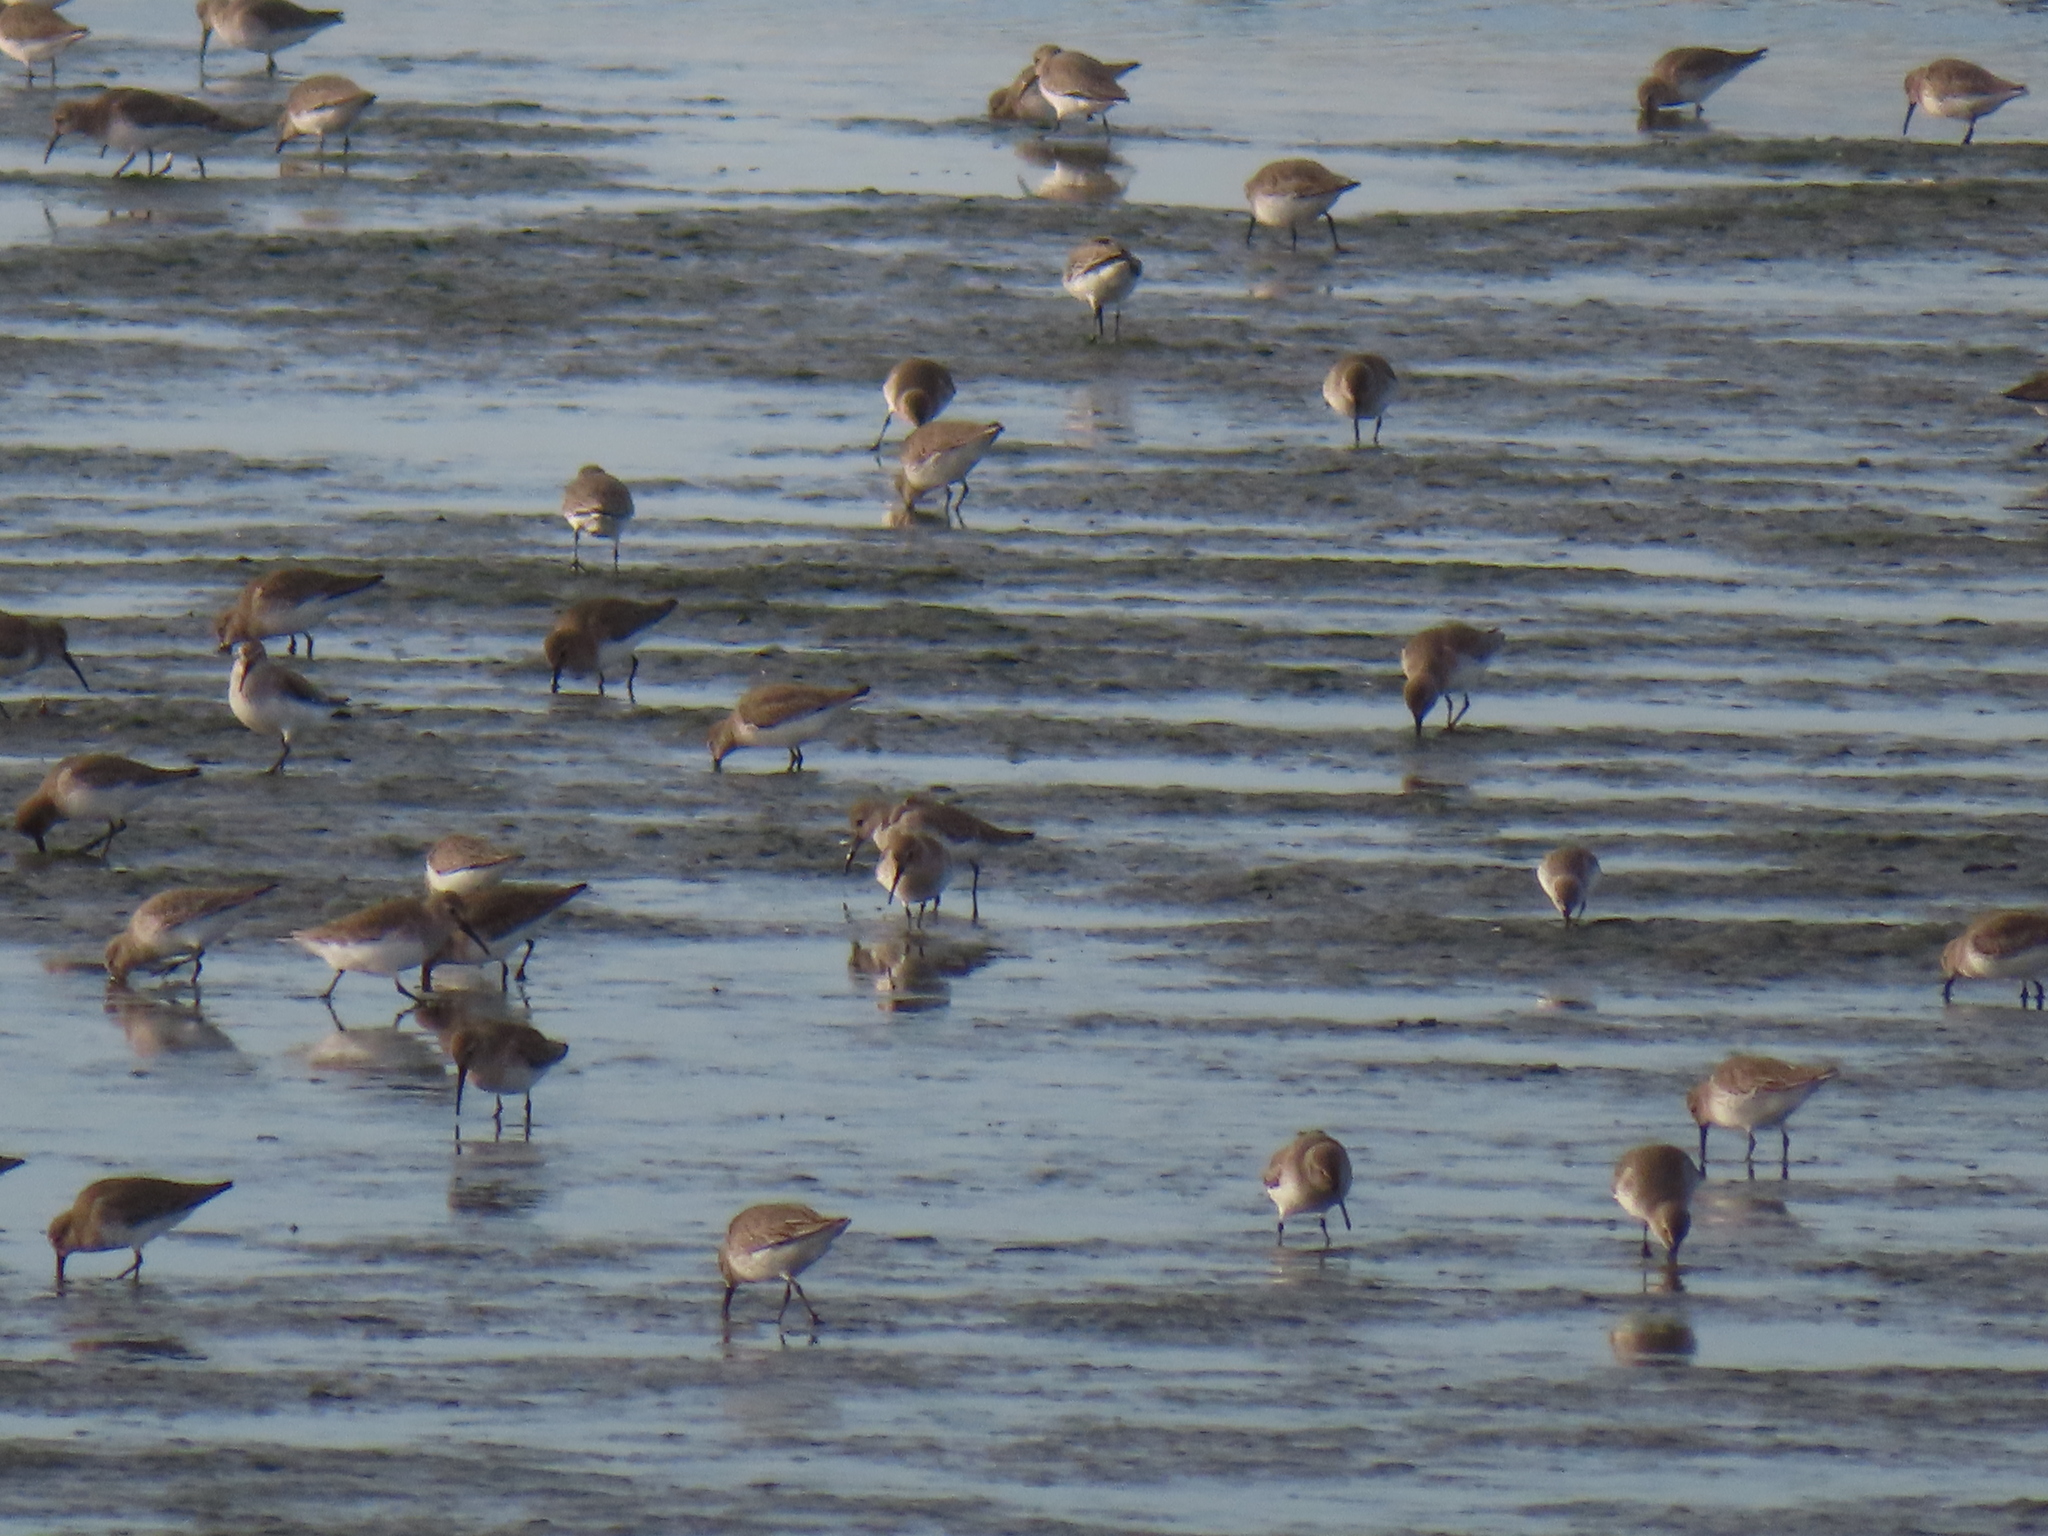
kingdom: Animalia
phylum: Chordata
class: Aves
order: Charadriiformes
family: Scolopacidae
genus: Calidris
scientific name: Calidris alpina
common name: Dunlin
